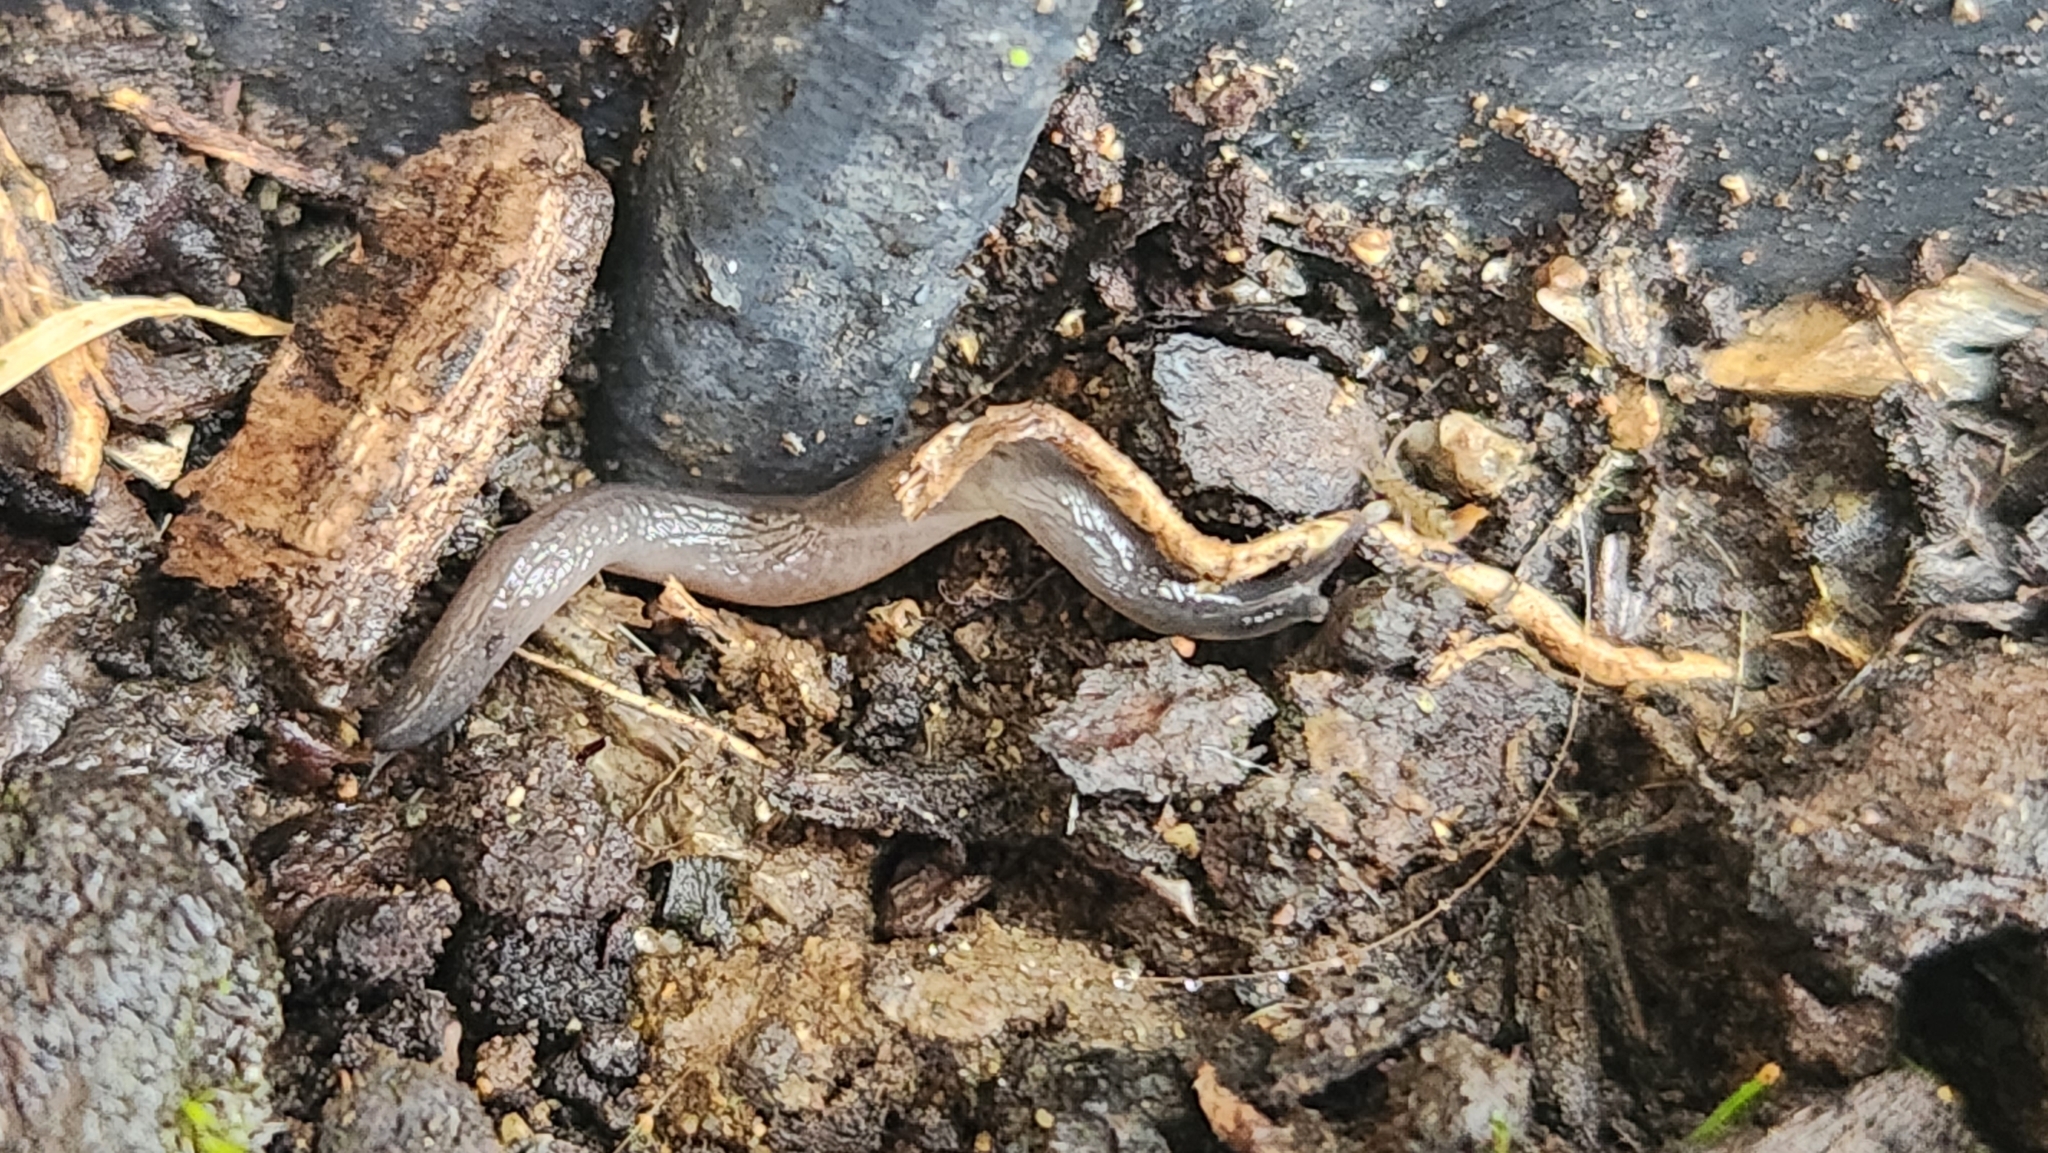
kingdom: Animalia
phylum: Mollusca
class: Gastropoda
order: Stylommatophora
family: Boettgerillidae
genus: Boettgerilla
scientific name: Boettgerilla pallens
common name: Worm slug
